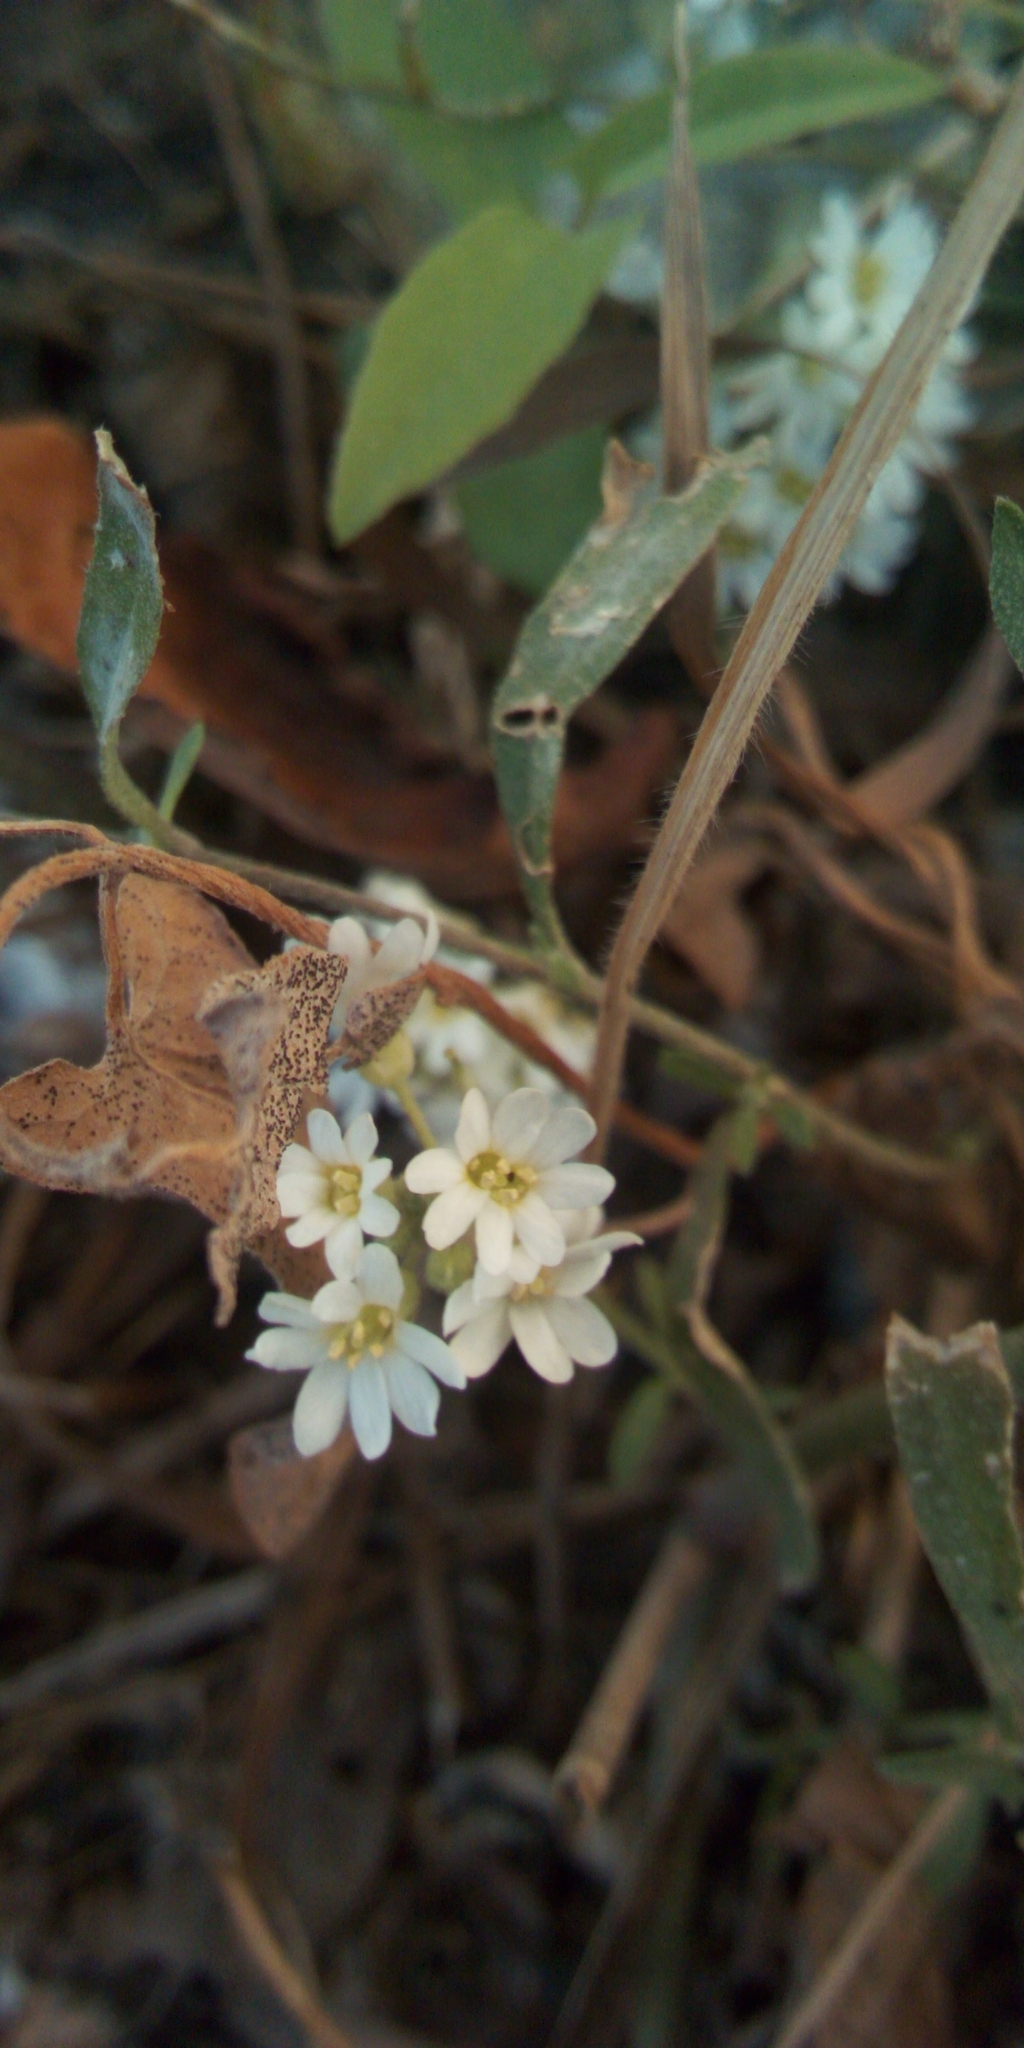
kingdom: Plantae
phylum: Tracheophyta
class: Magnoliopsida
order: Brassicales
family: Brassicaceae
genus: Berteroa
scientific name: Berteroa incana
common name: Hoary alison
